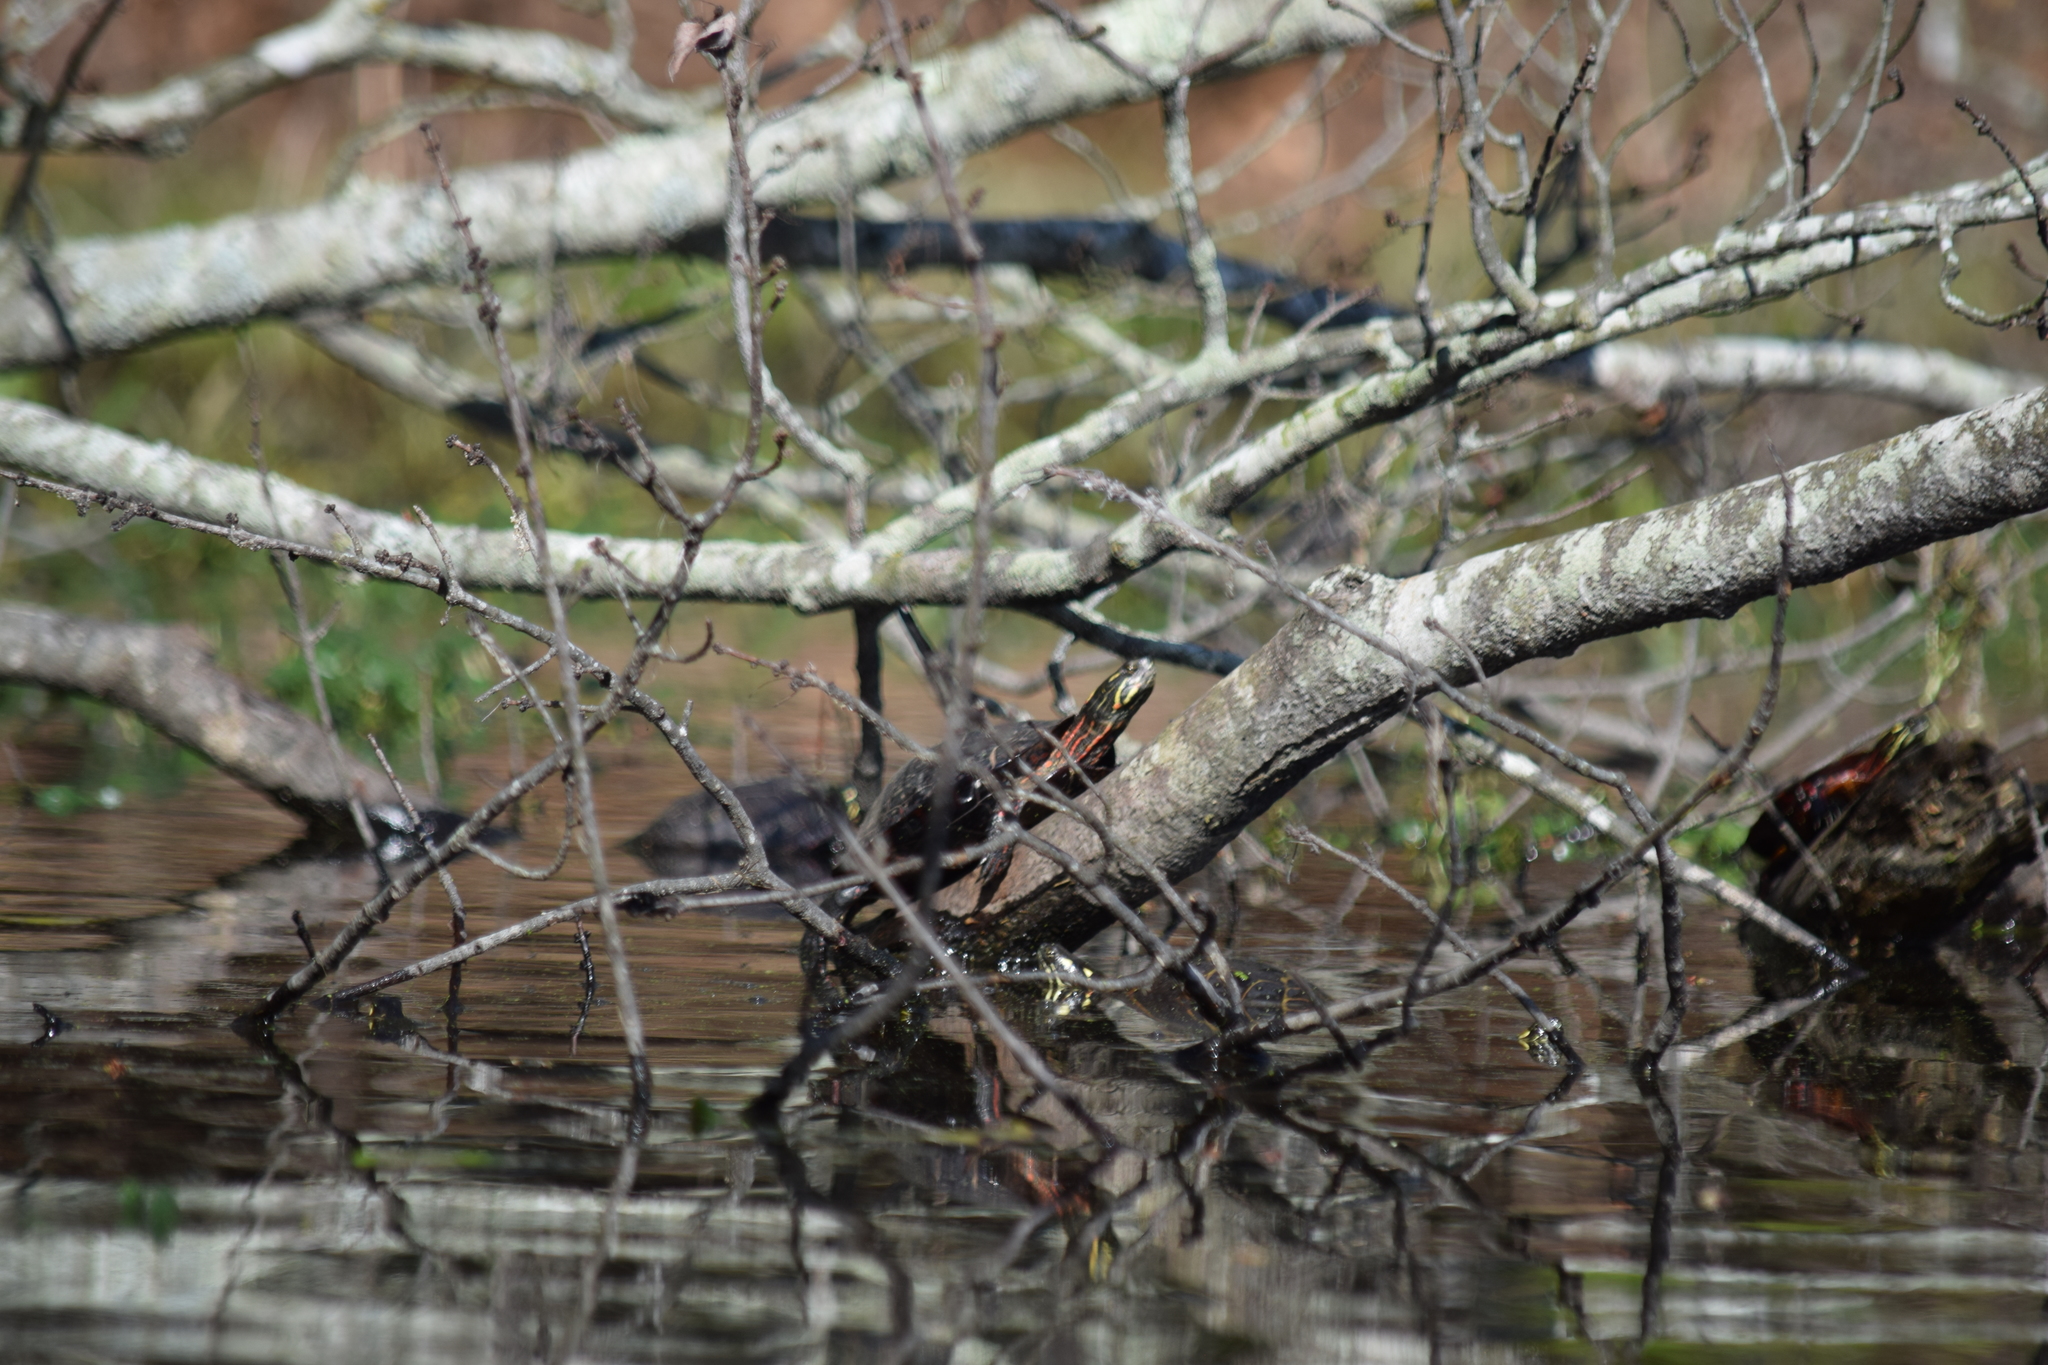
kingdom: Animalia
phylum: Chordata
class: Testudines
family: Emydidae
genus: Chrysemys
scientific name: Chrysemys picta
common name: Painted turtle
